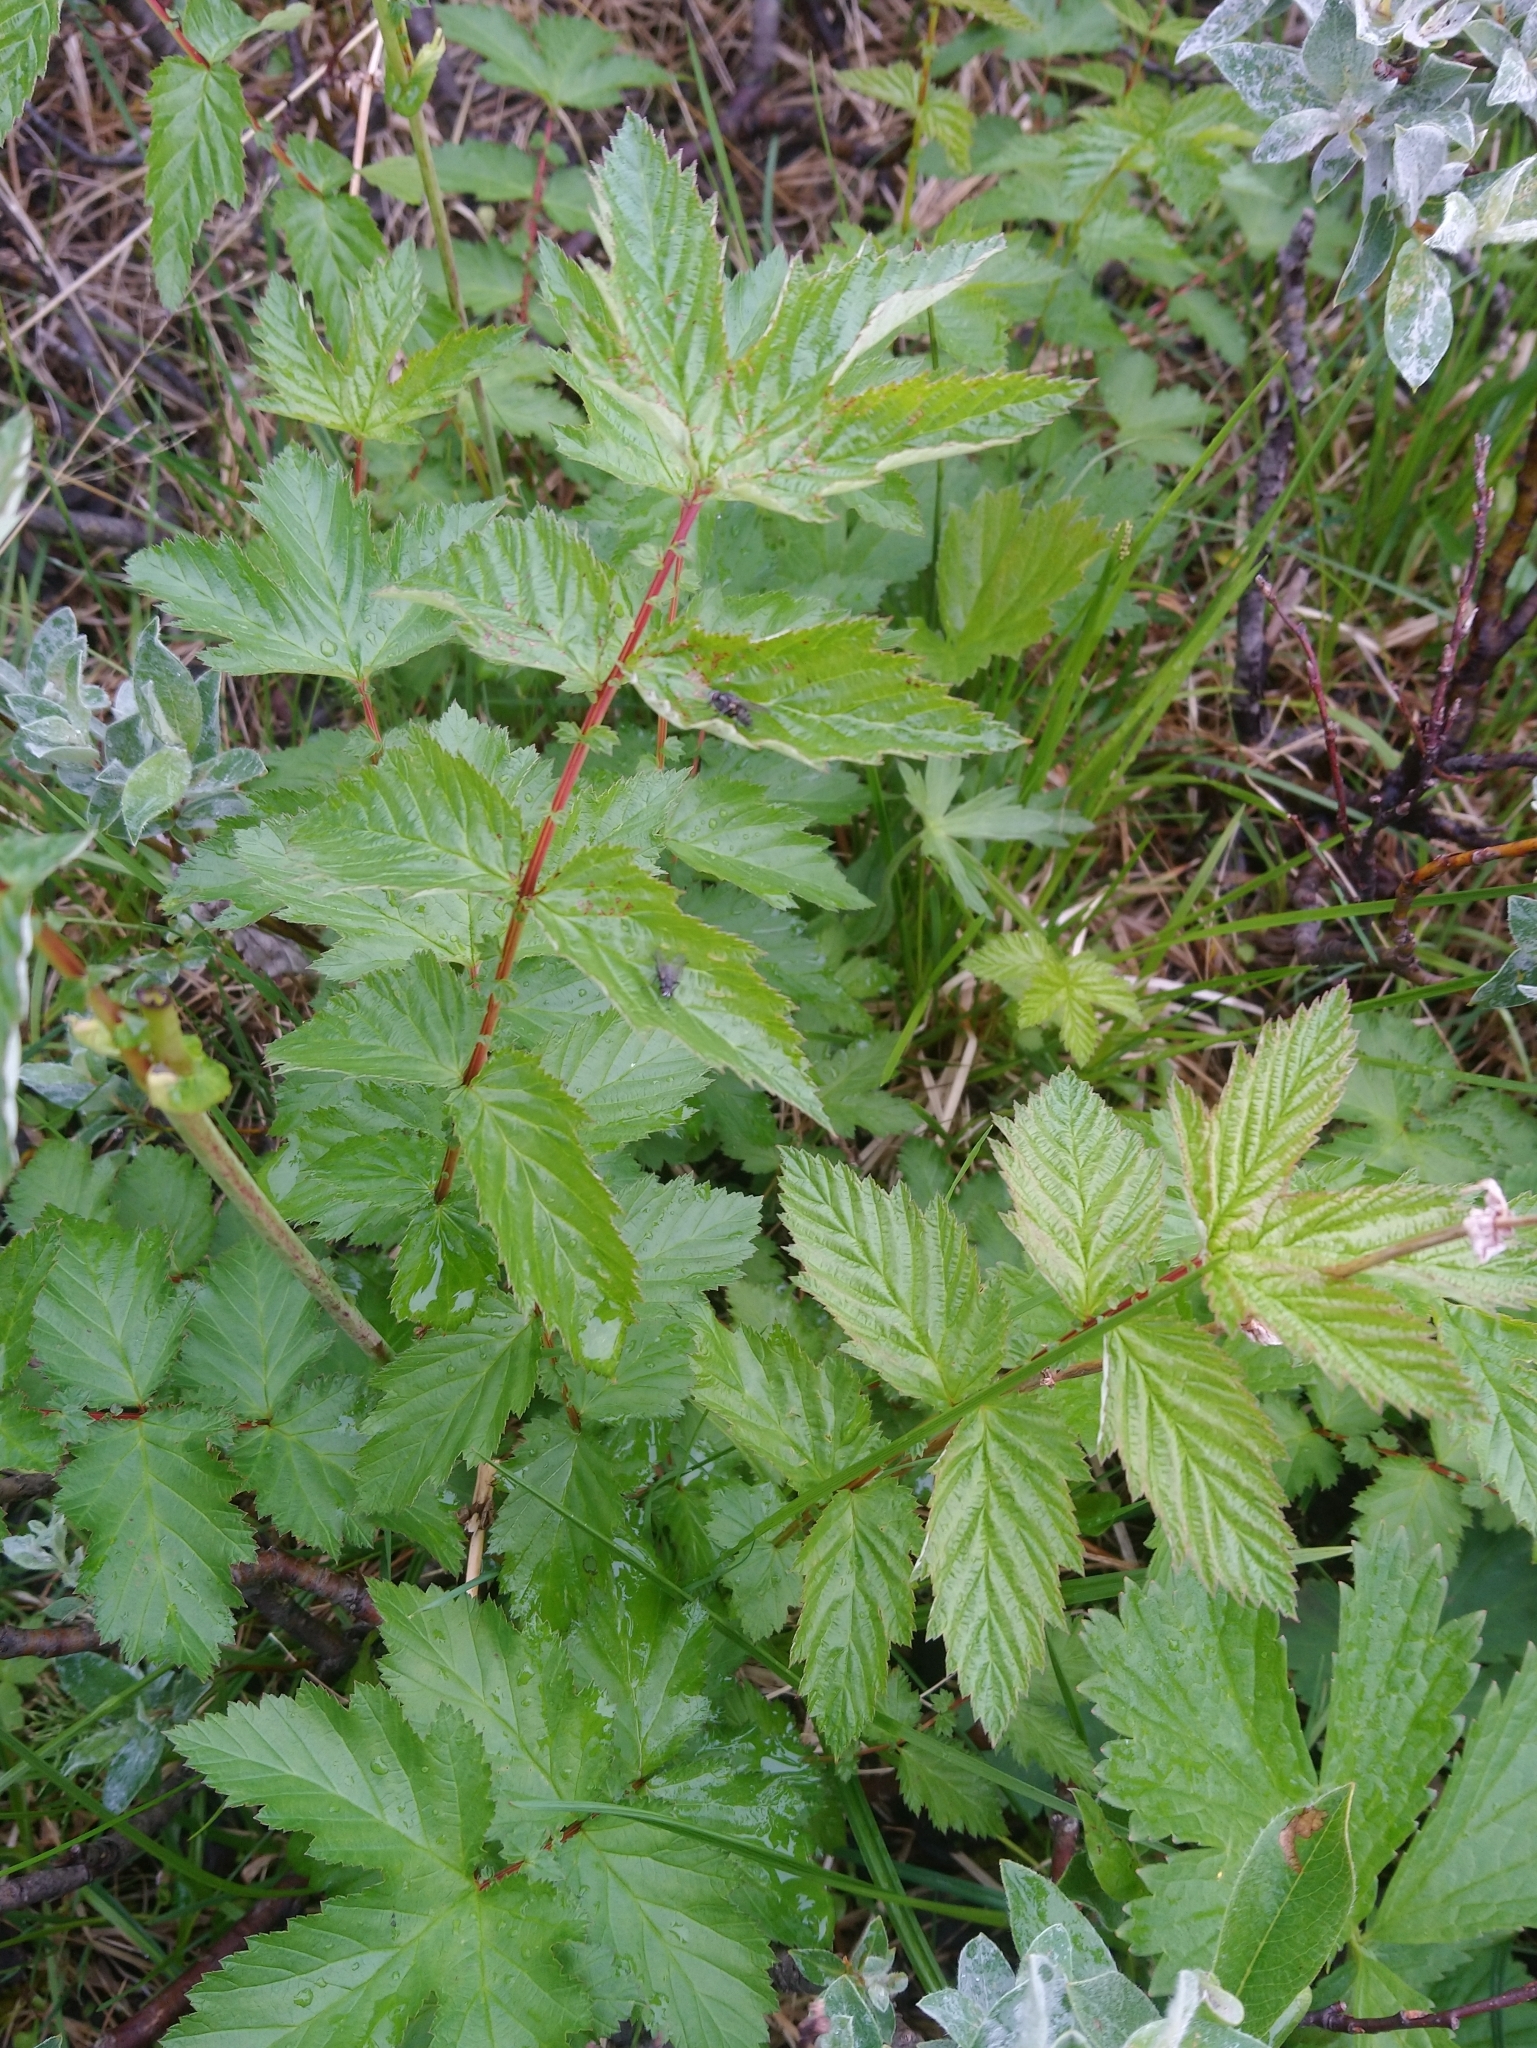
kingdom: Plantae
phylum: Tracheophyta
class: Magnoliopsida
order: Rosales
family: Rosaceae
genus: Filipendula
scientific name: Filipendula ulmaria
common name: Meadowsweet
